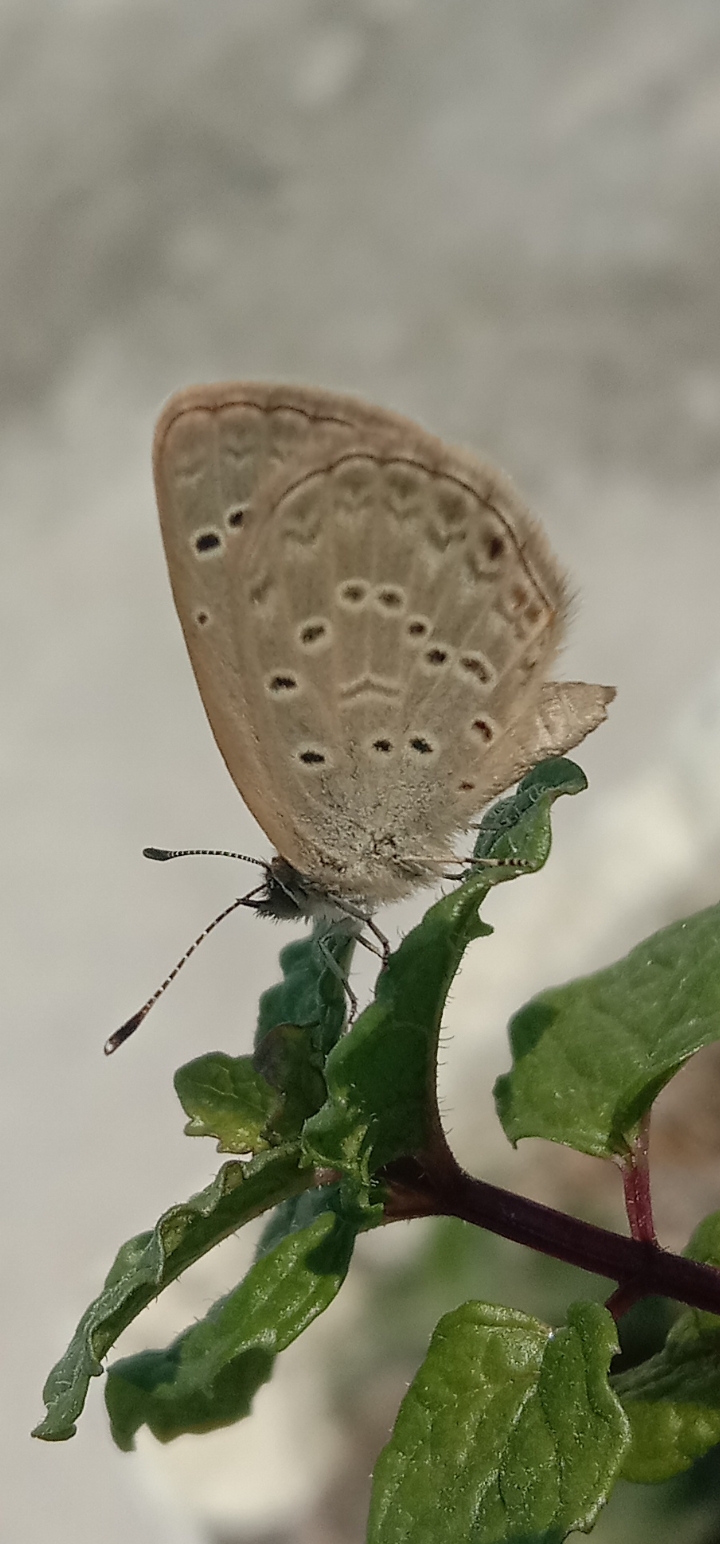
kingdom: Animalia
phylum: Arthropoda
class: Insecta
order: Lepidoptera
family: Lycaenidae
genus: Zizeeria
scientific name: Zizeeria karsandra
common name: Dark grass blue
